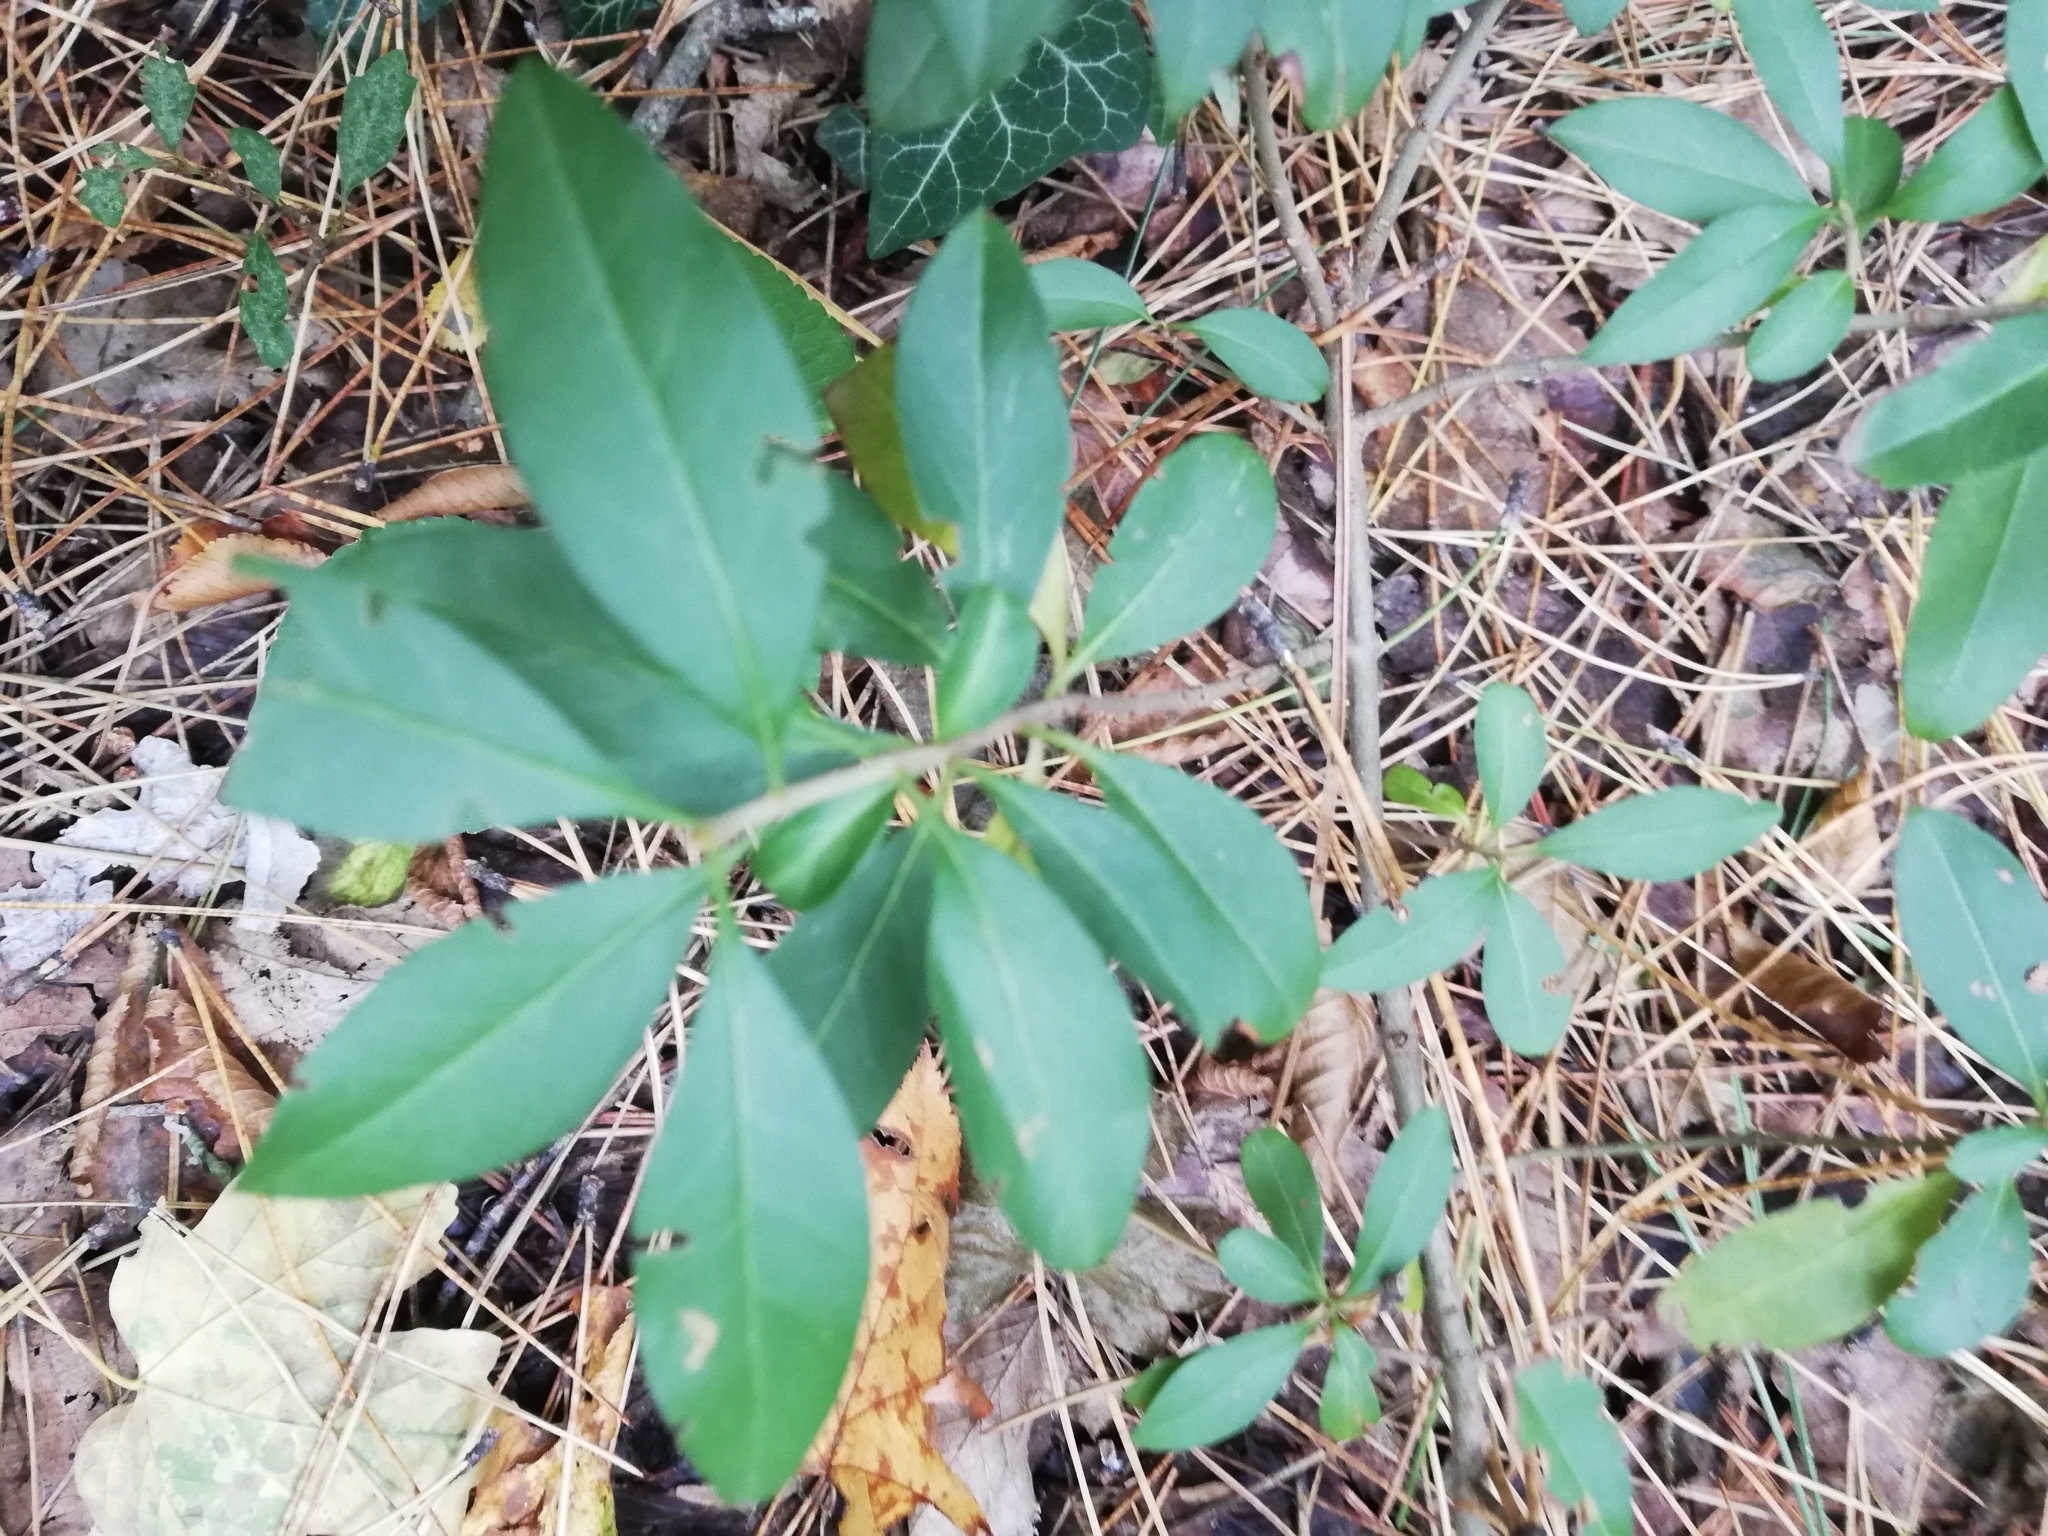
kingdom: Plantae
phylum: Tracheophyta
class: Magnoliopsida
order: Lamiales
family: Oleaceae
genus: Ligustrum
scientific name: Ligustrum vulgare
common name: Wild privet
